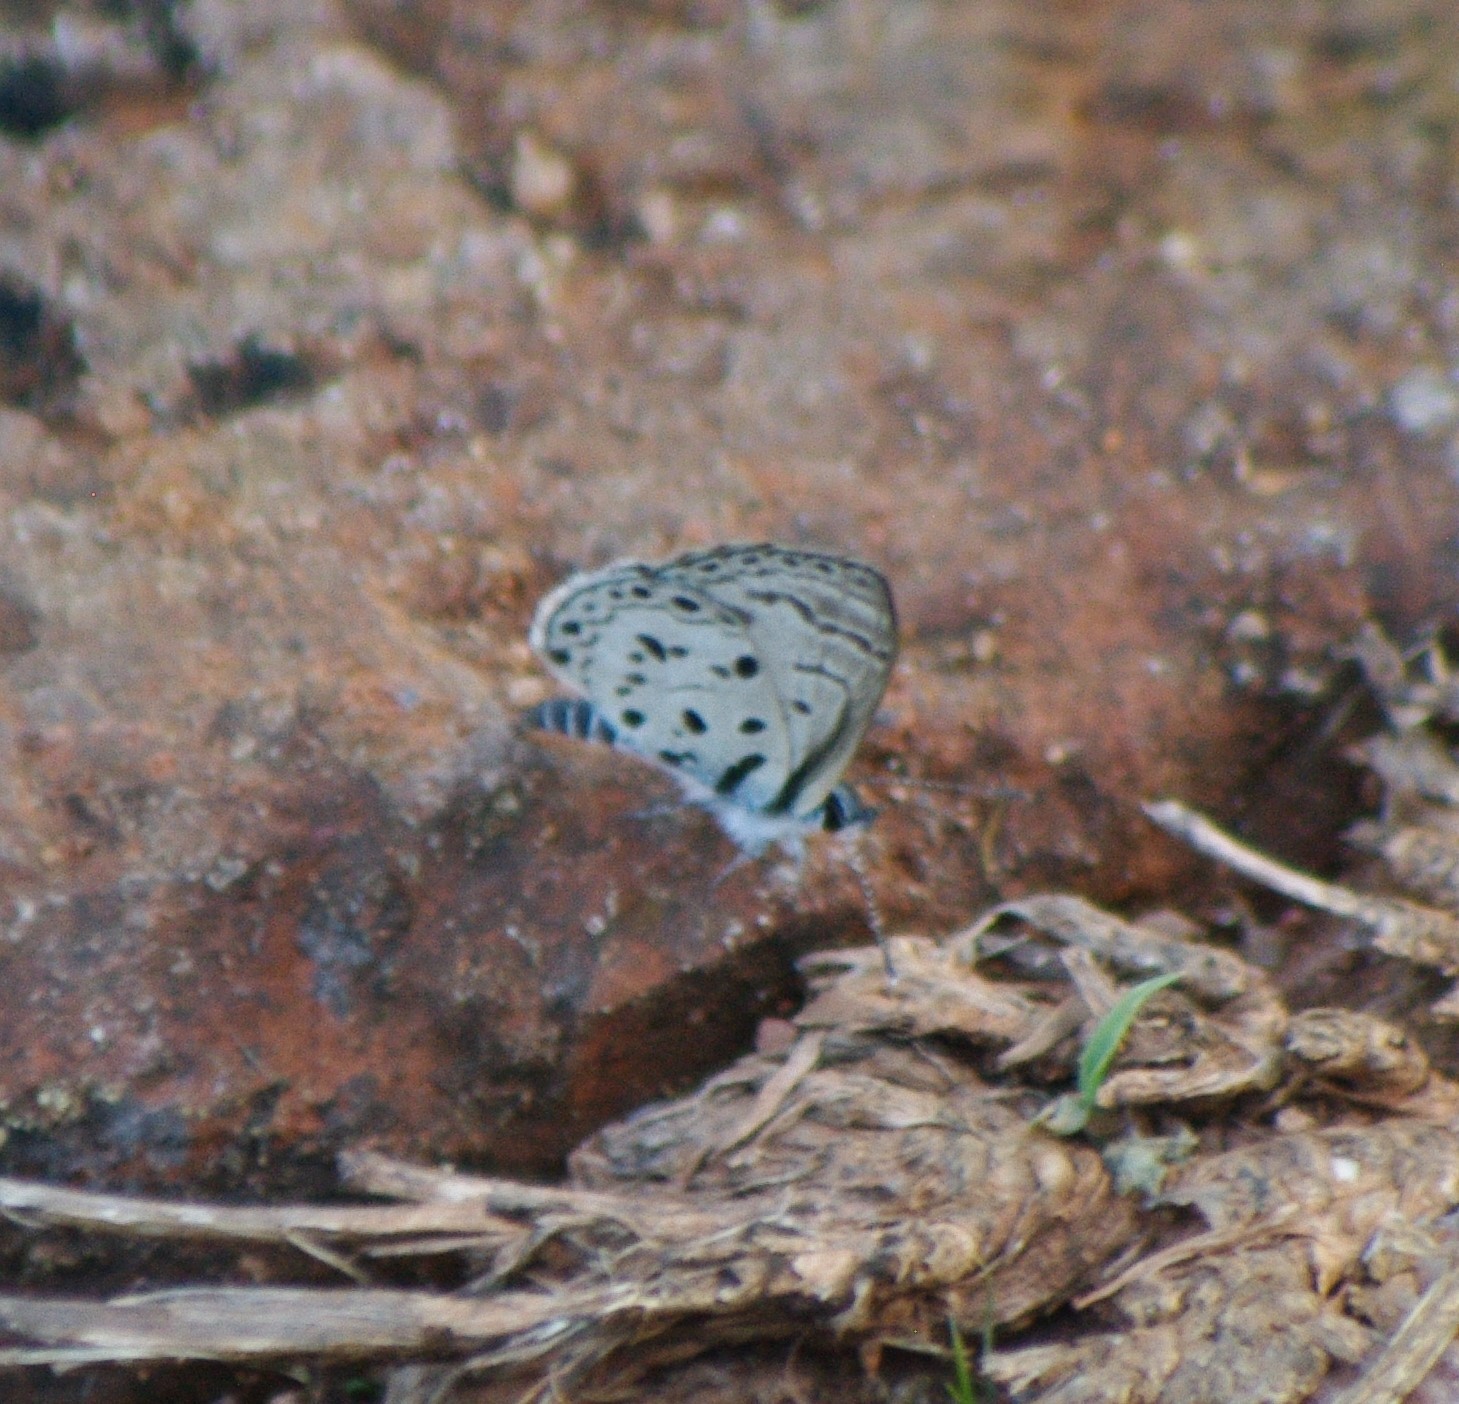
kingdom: Animalia
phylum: Arthropoda
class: Insecta
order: Lepidoptera
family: Lycaenidae
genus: Azanus
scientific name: Azanus moriqua
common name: Thorn-tree babul blue
